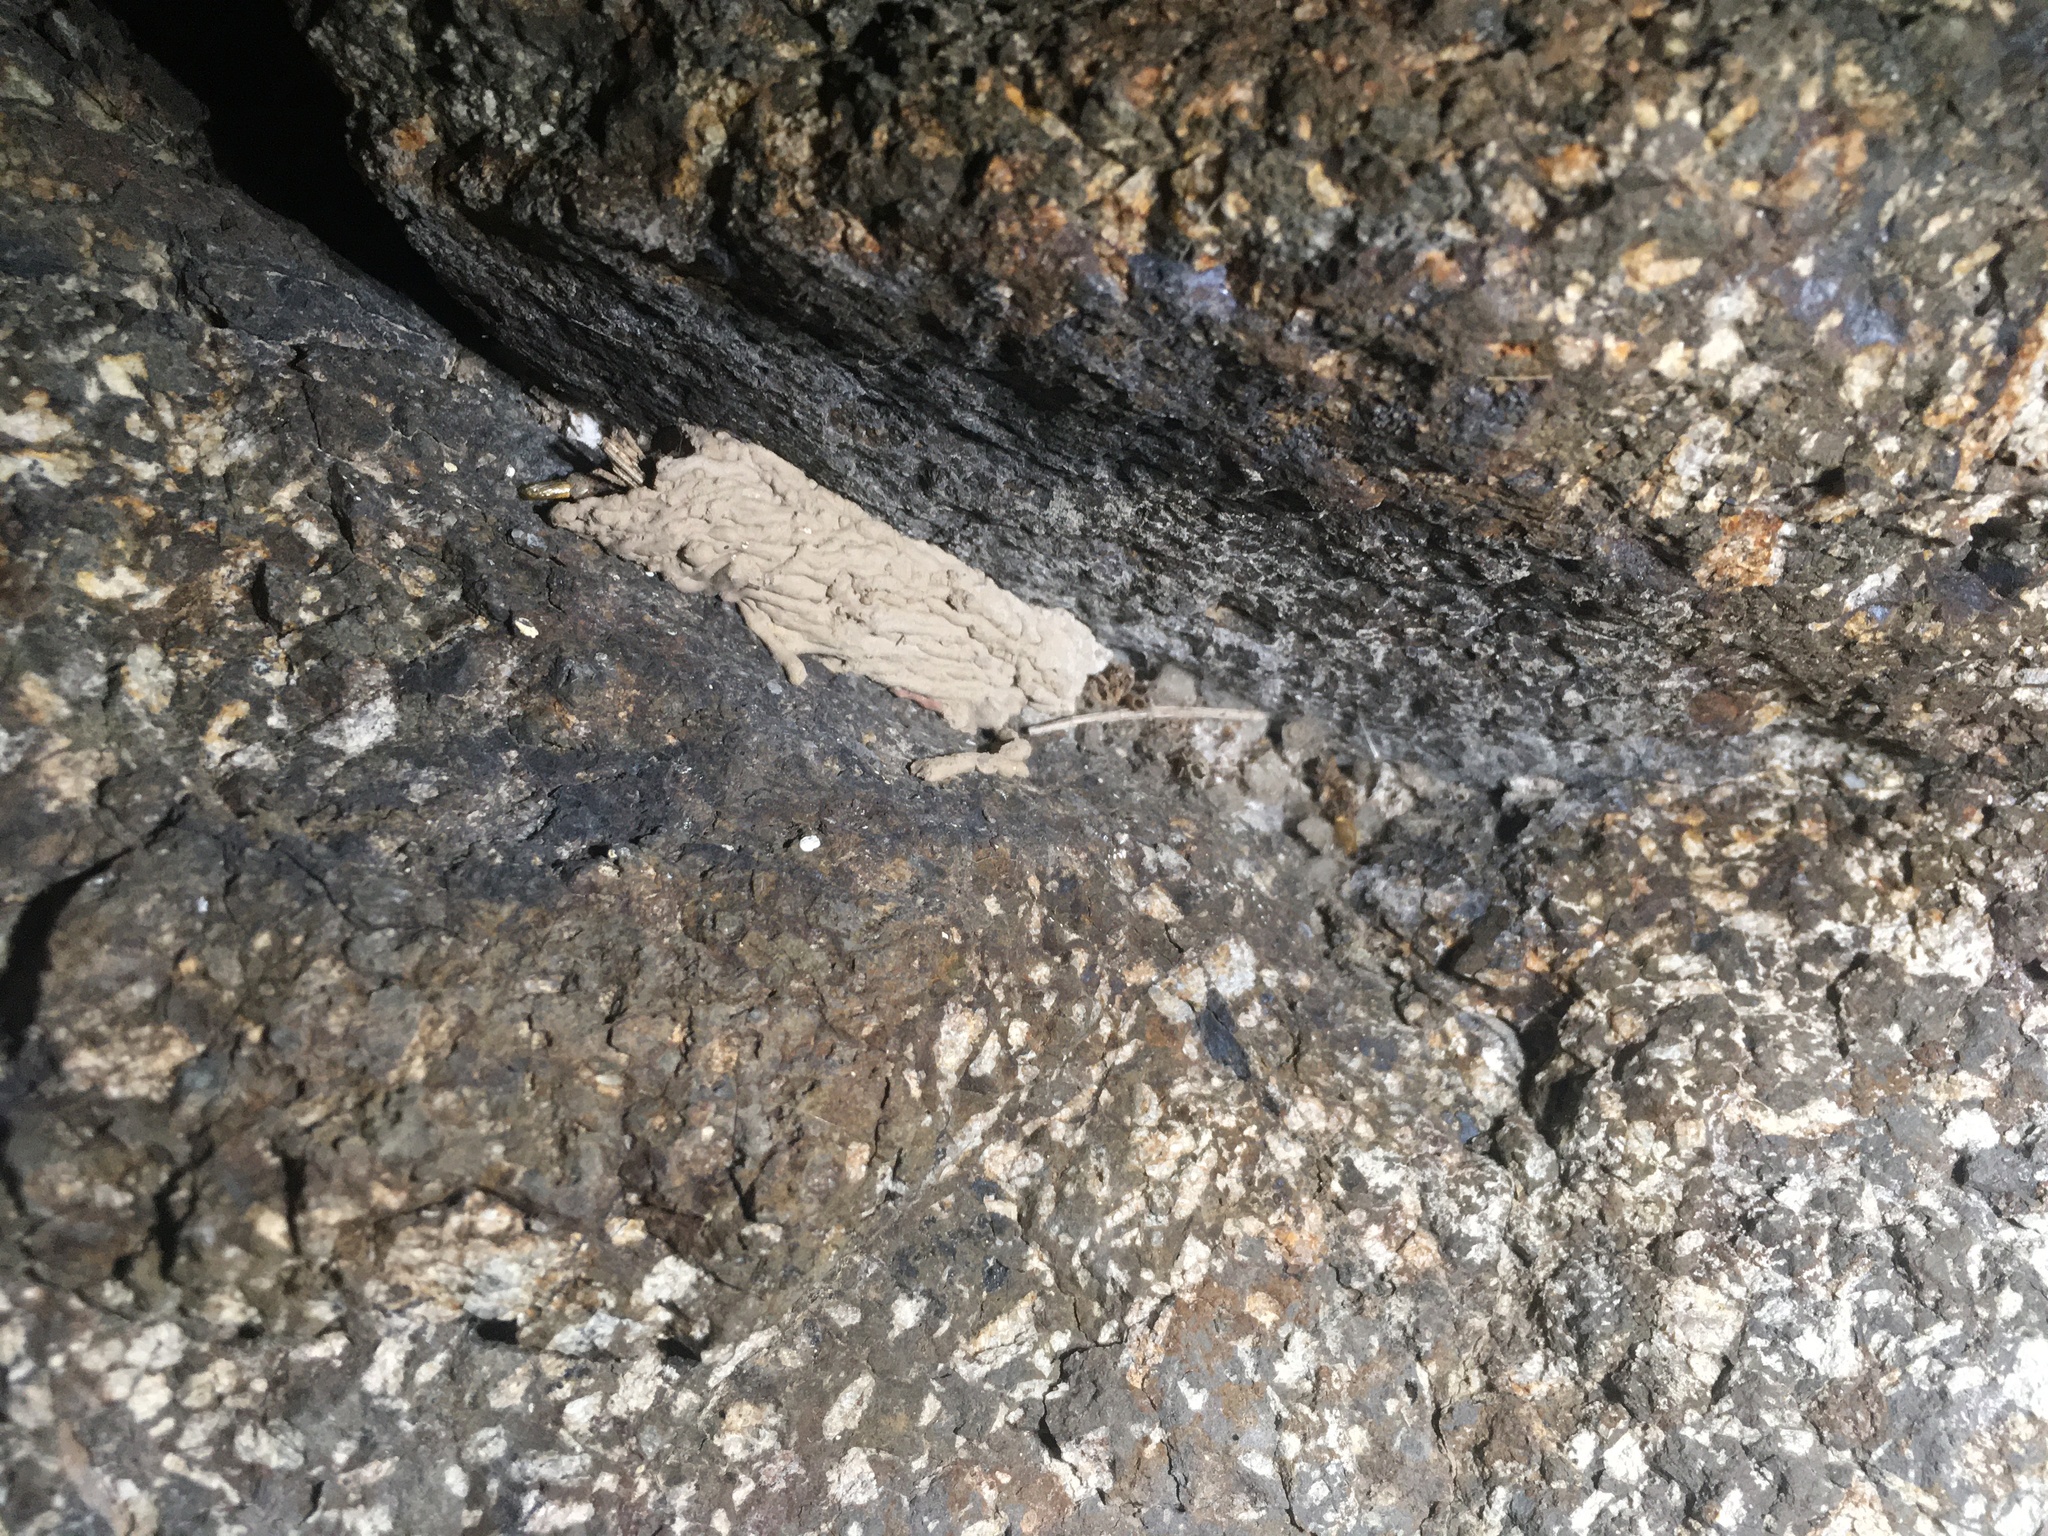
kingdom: Animalia
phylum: Arthropoda
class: Insecta
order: Hymenoptera
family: Crabronidae
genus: Pison
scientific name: Pison spinolae
